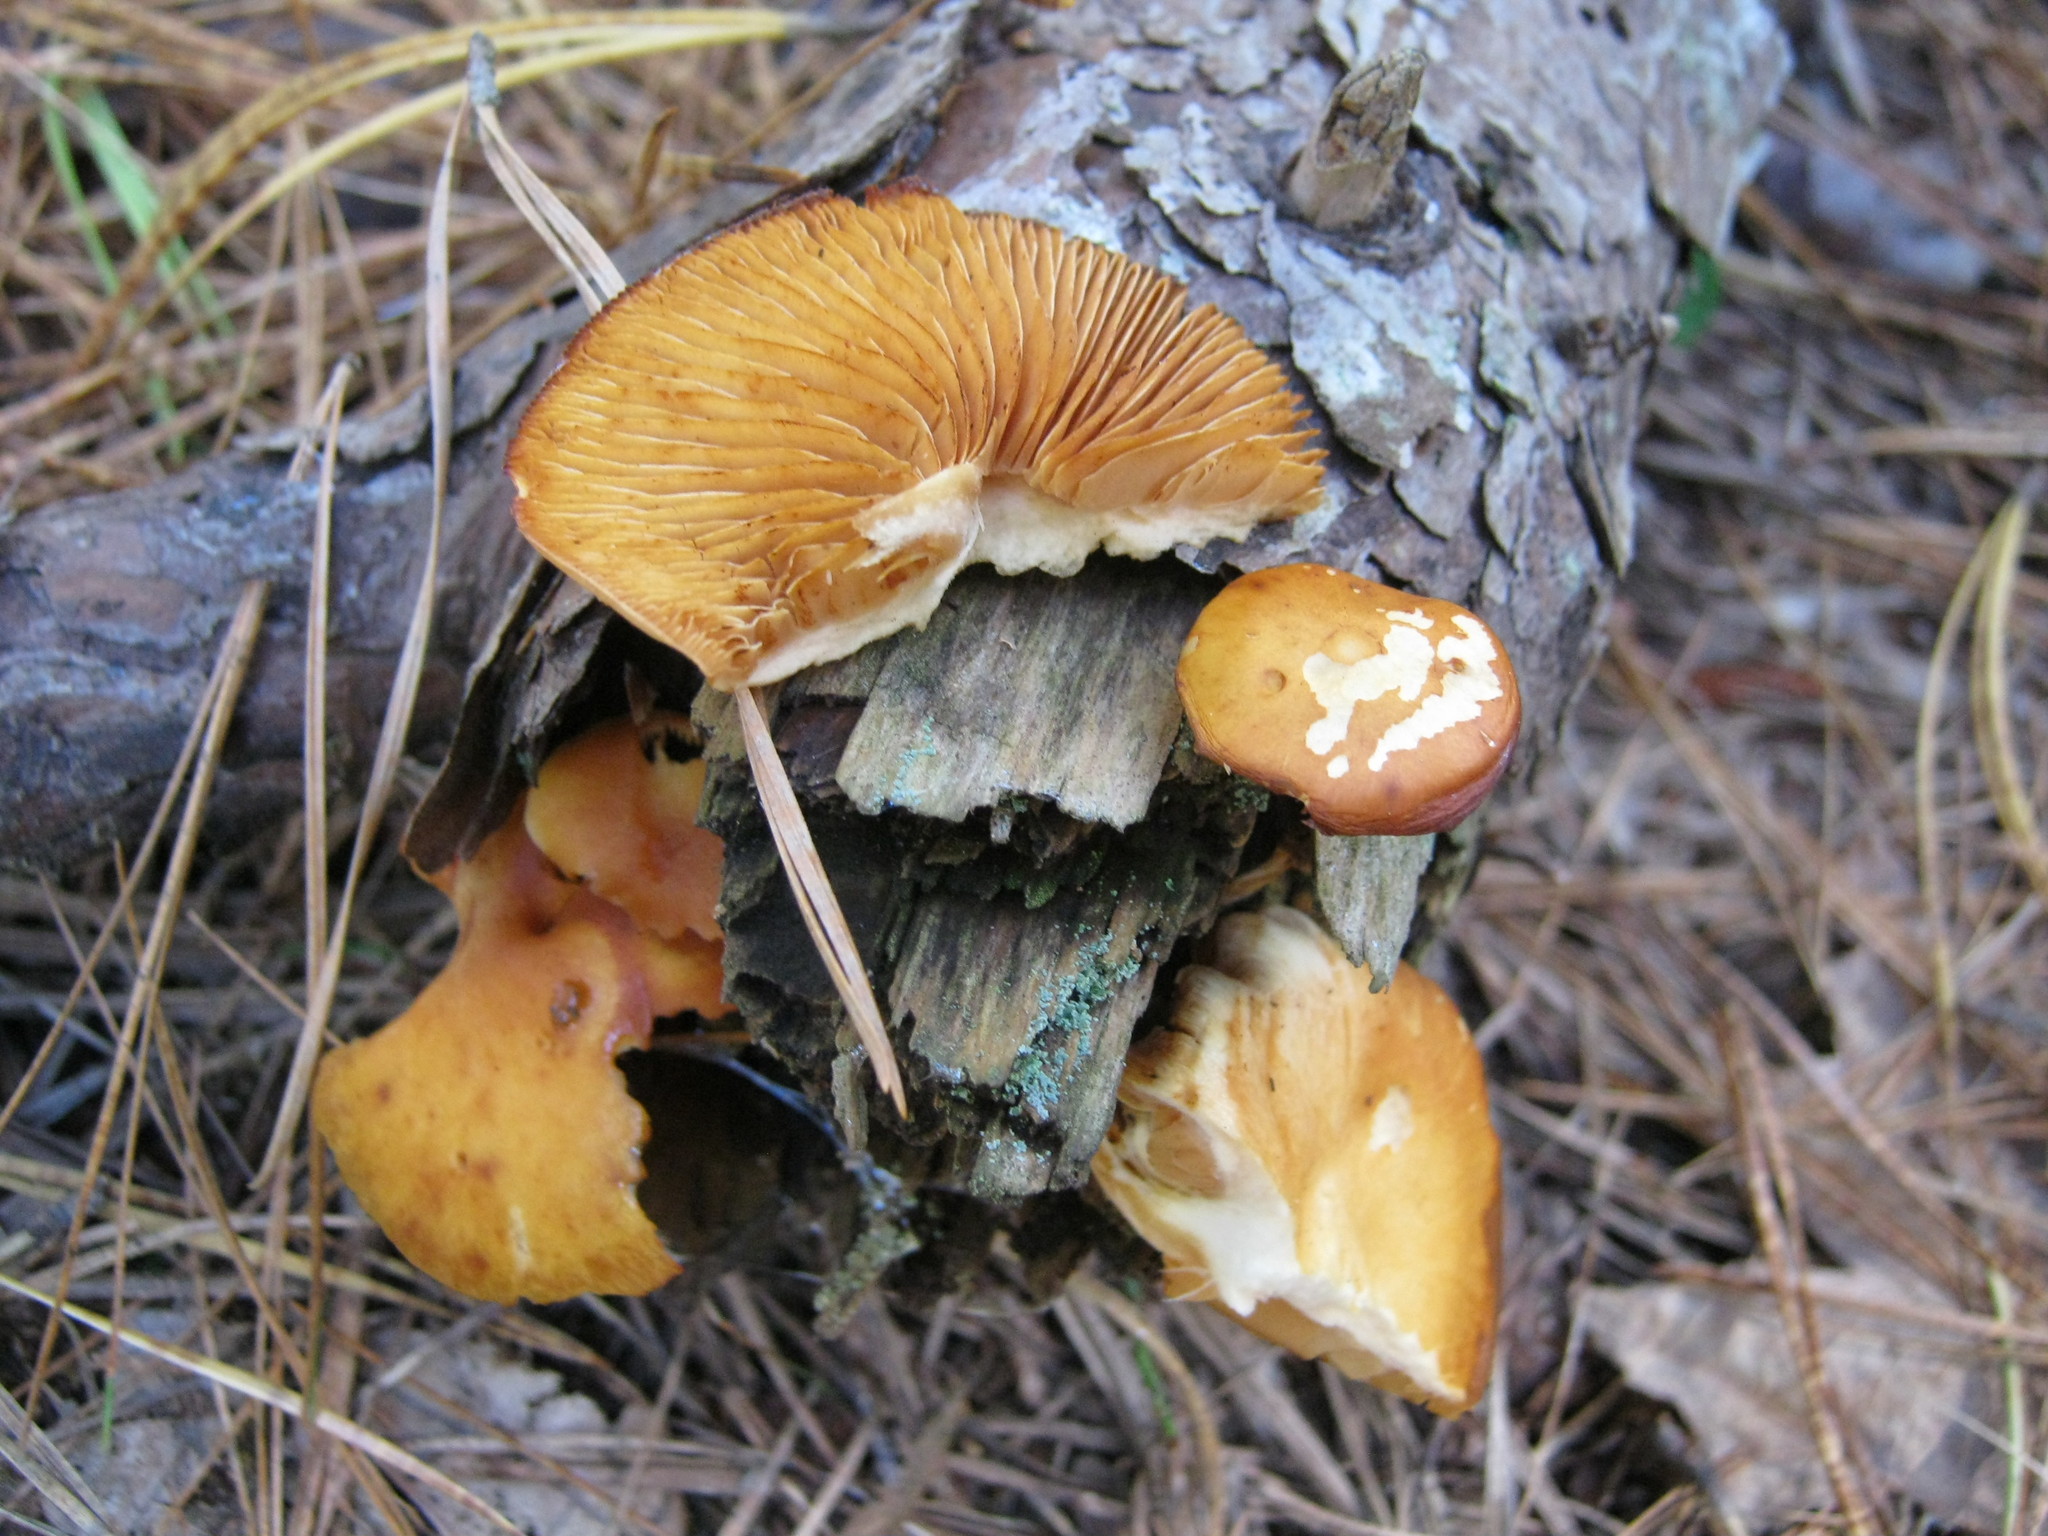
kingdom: Fungi
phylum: Basidiomycota
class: Agaricomycetes
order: Agaricales
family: Hymenogastraceae
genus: Gymnopilus
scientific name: Gymnopilus sapineus
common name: Scaly rustgill
